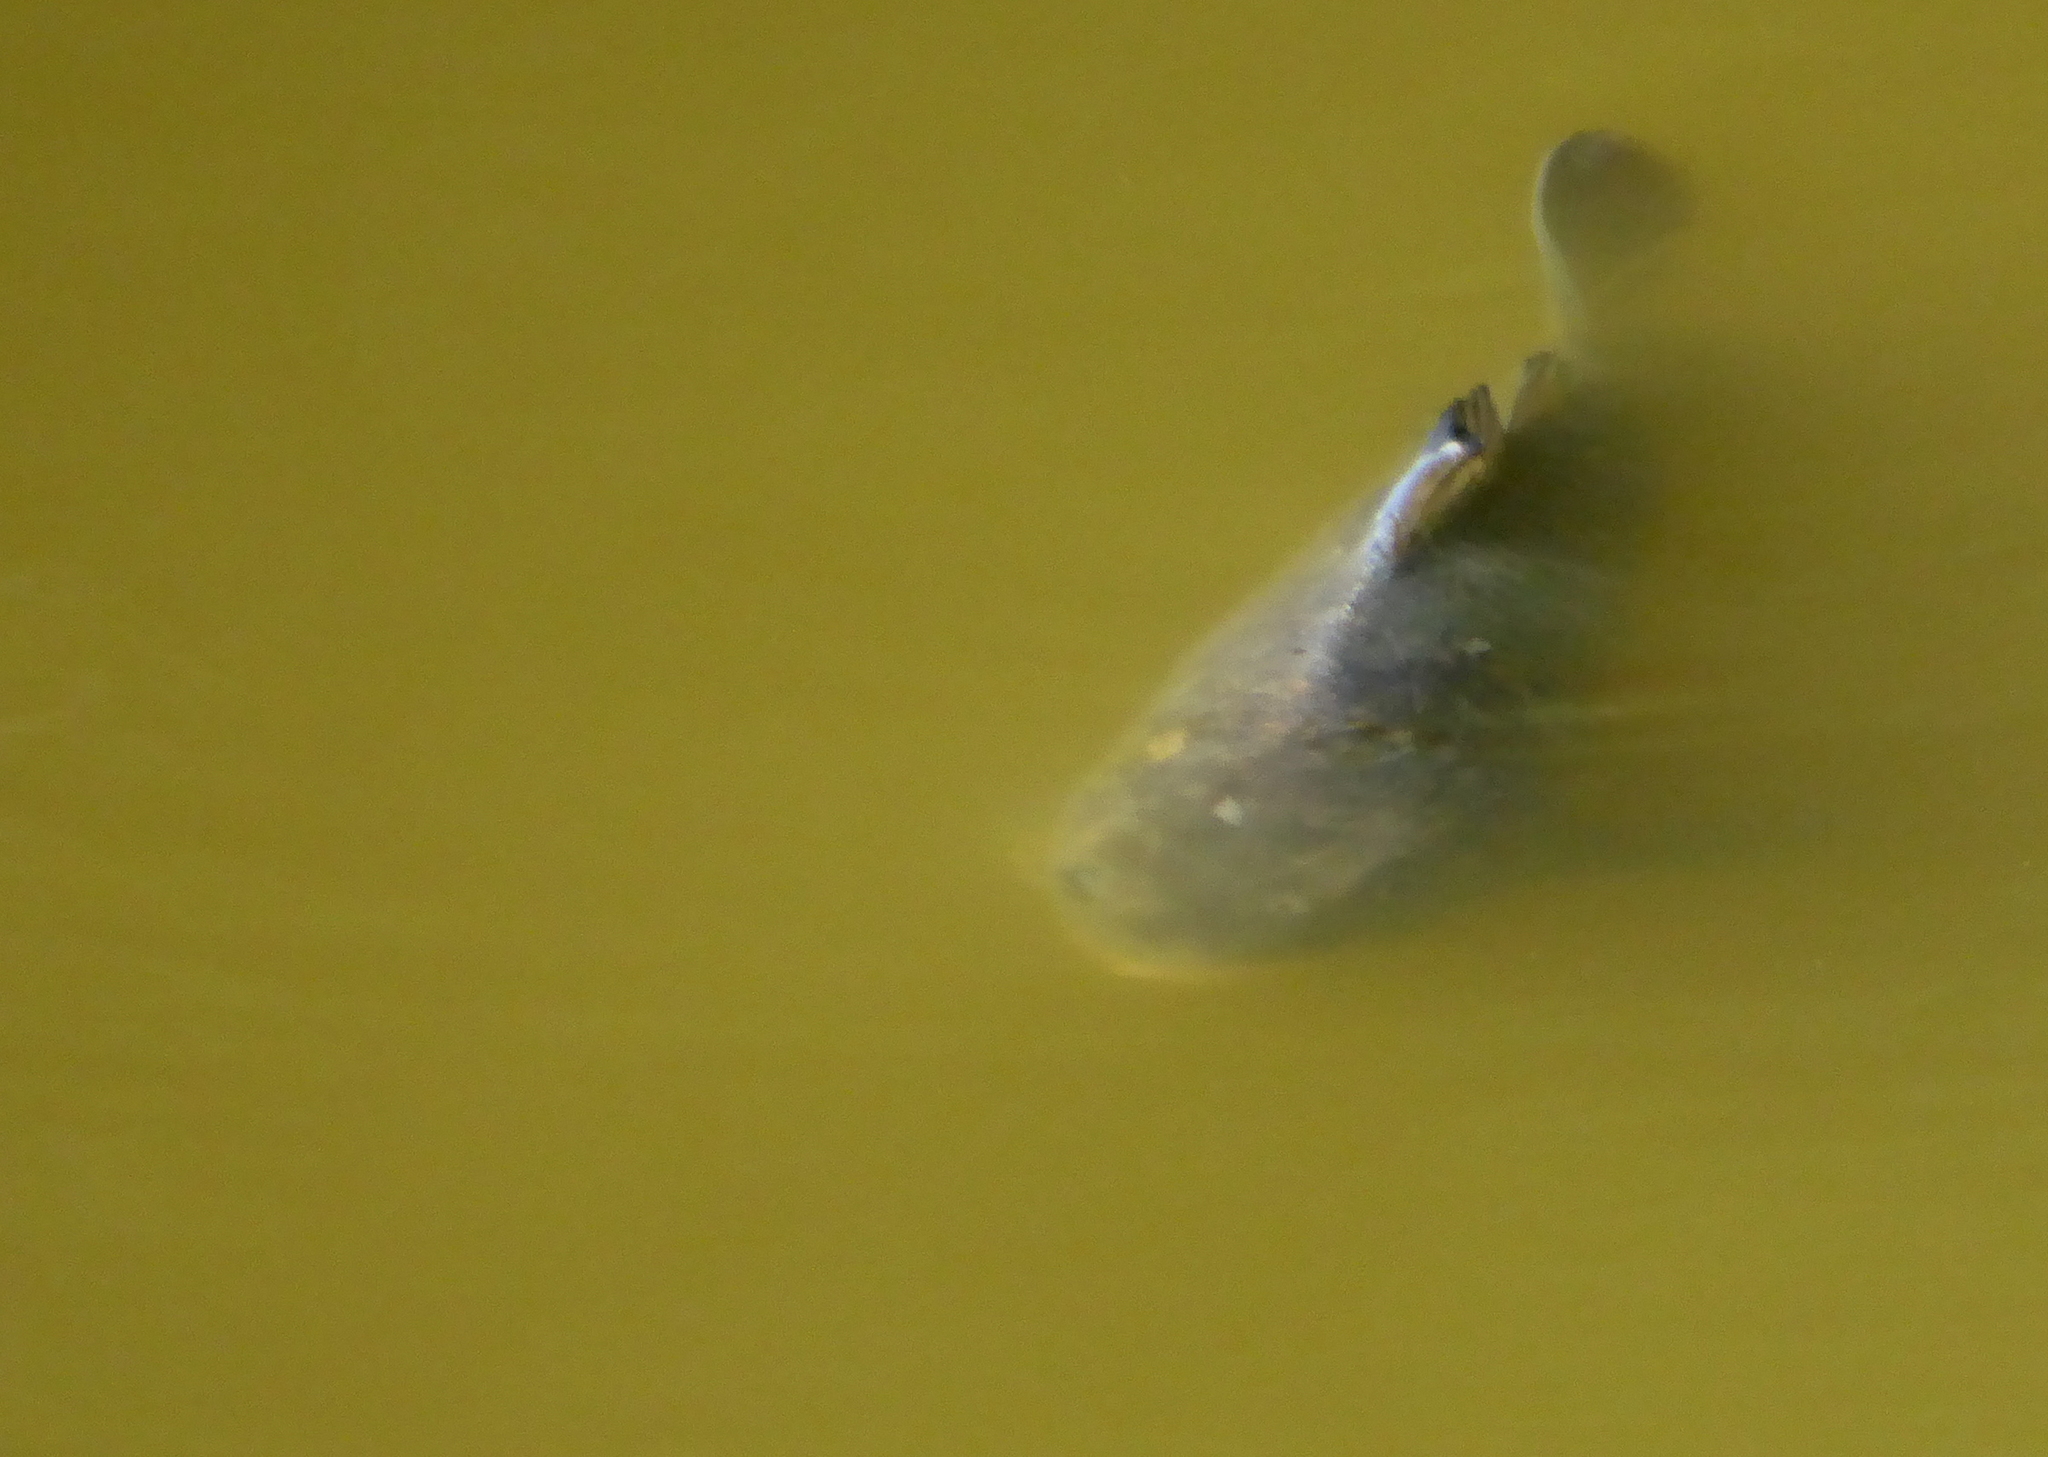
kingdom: Animalia
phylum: Chordata
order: Cypriniformes
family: Cyprinidae
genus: Cyprinus
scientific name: Cyprinus carpio
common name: Common carp
